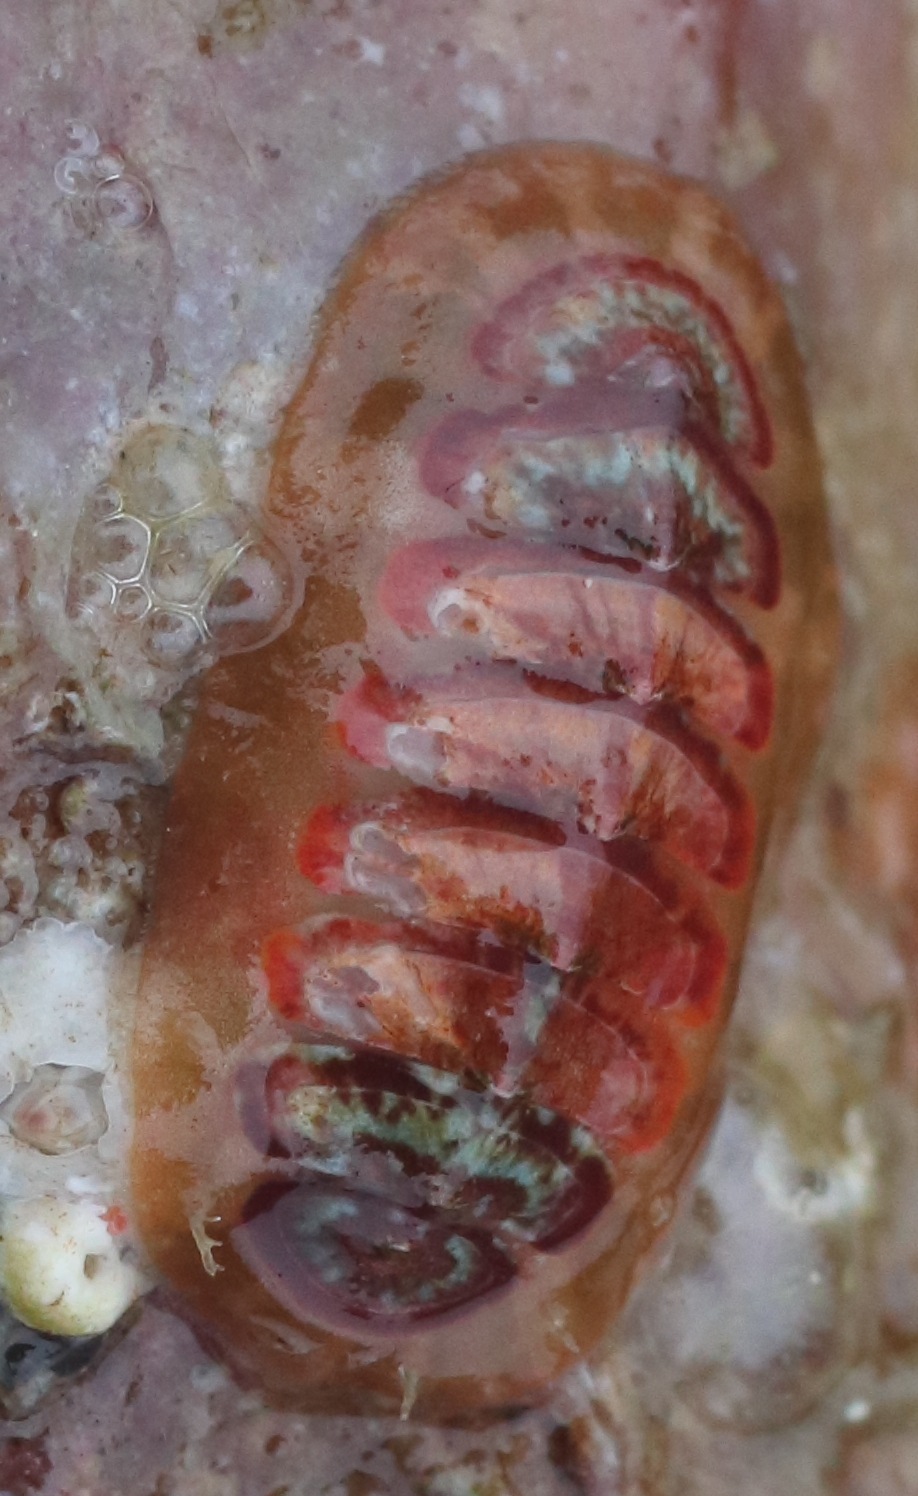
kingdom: Animalia
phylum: Mollusca
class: Polyplacophora
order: Chitonida
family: Mopaliidae
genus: Dendrochiton
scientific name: Dendrochiton flectens
